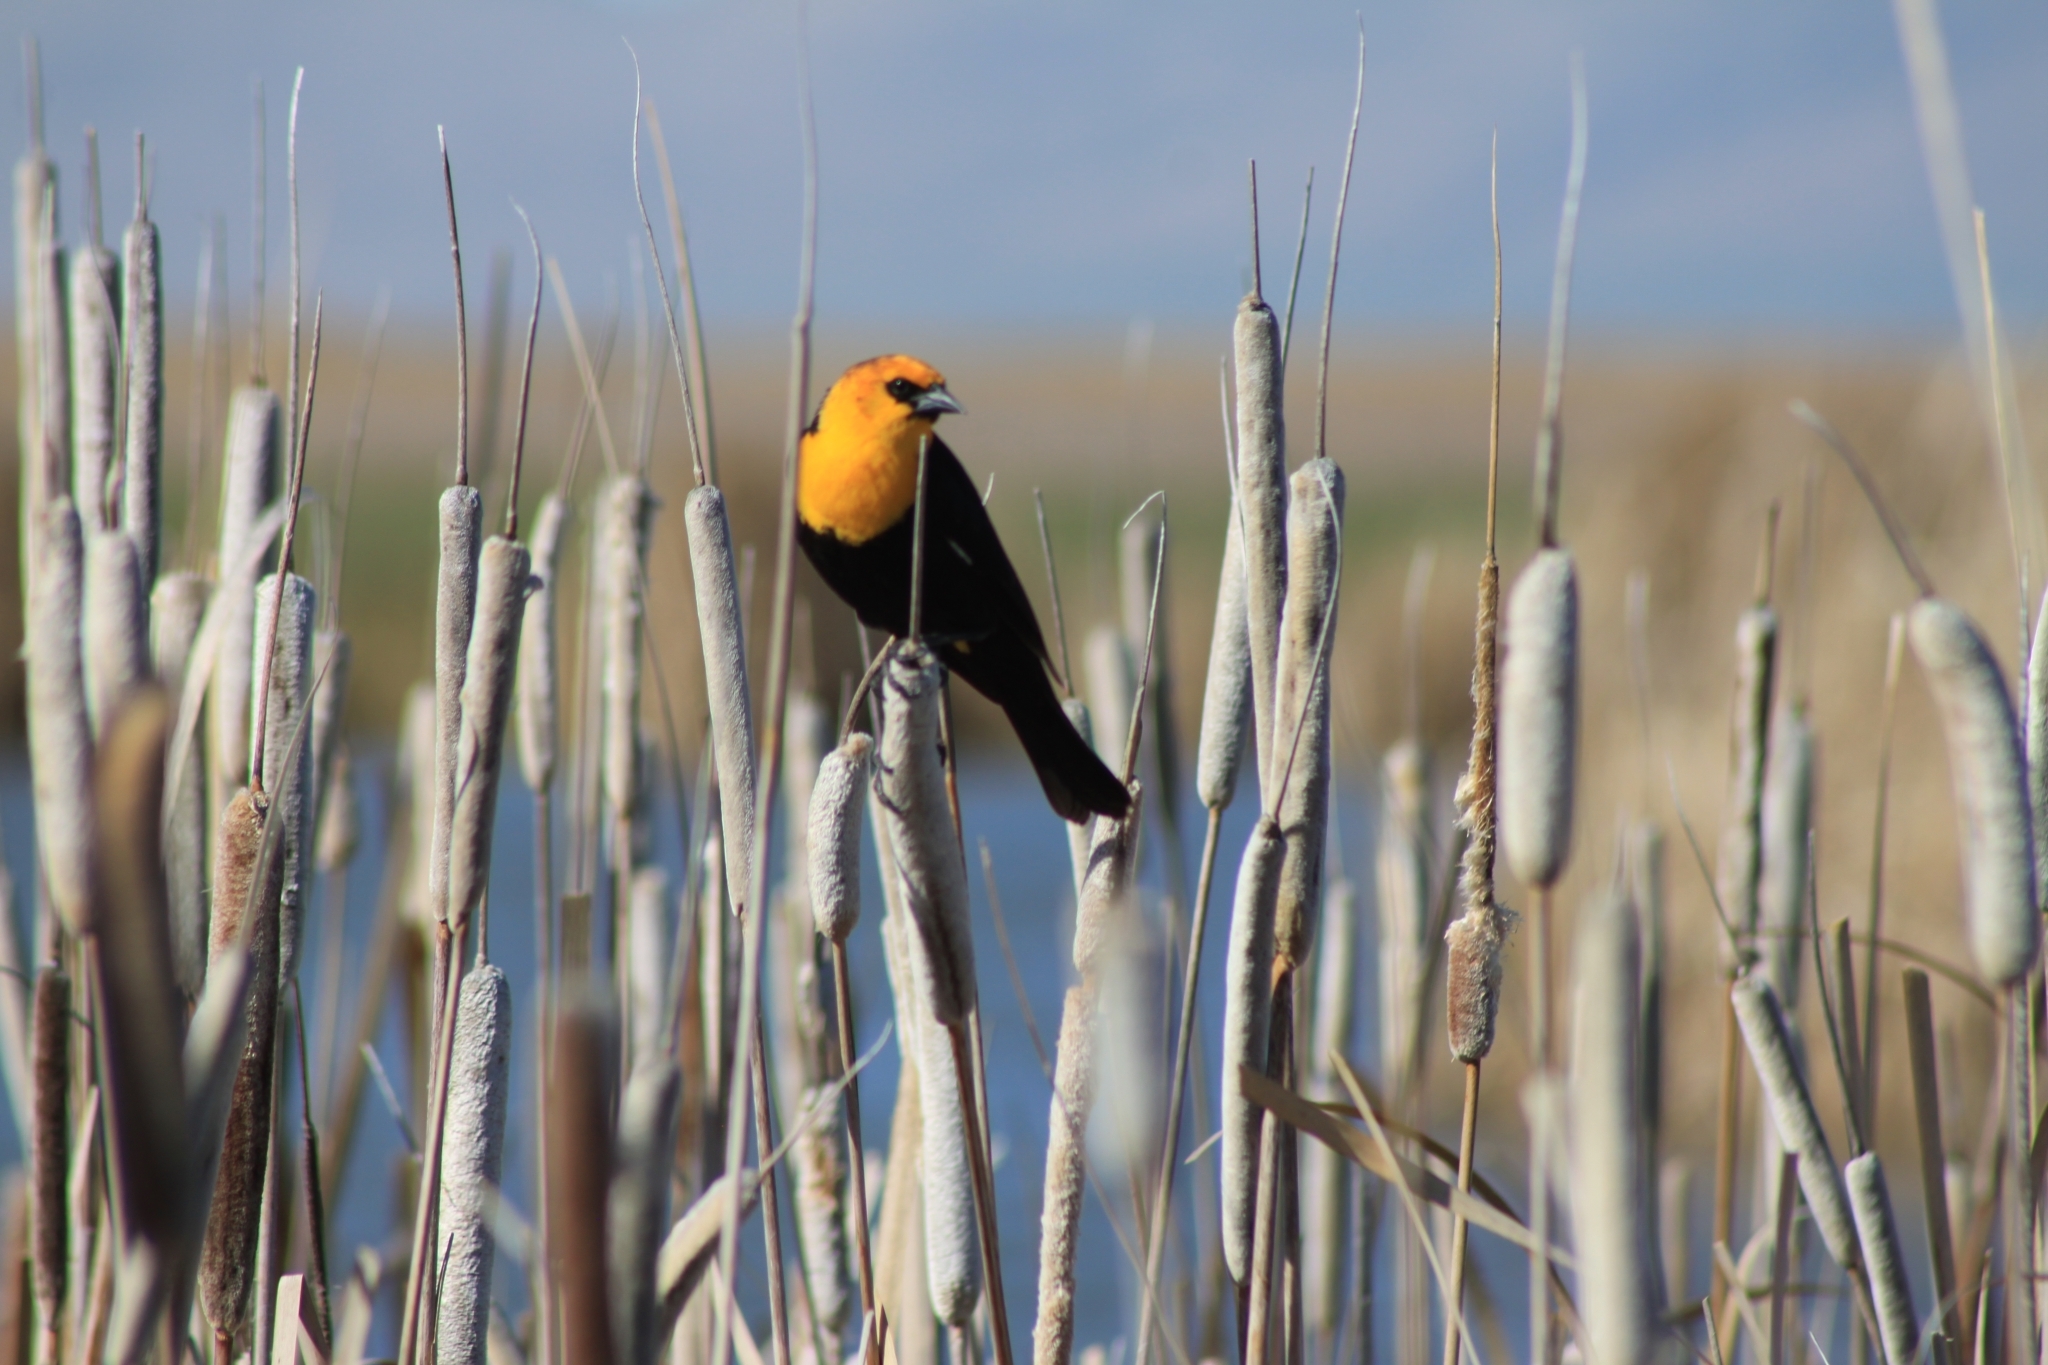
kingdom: Animalia
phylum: Chordata
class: Aves
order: Passeriformes
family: Icteridae
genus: Xanthocephalus
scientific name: Xanthocephalus xanthocephalus
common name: Yellow-headed blackbird
